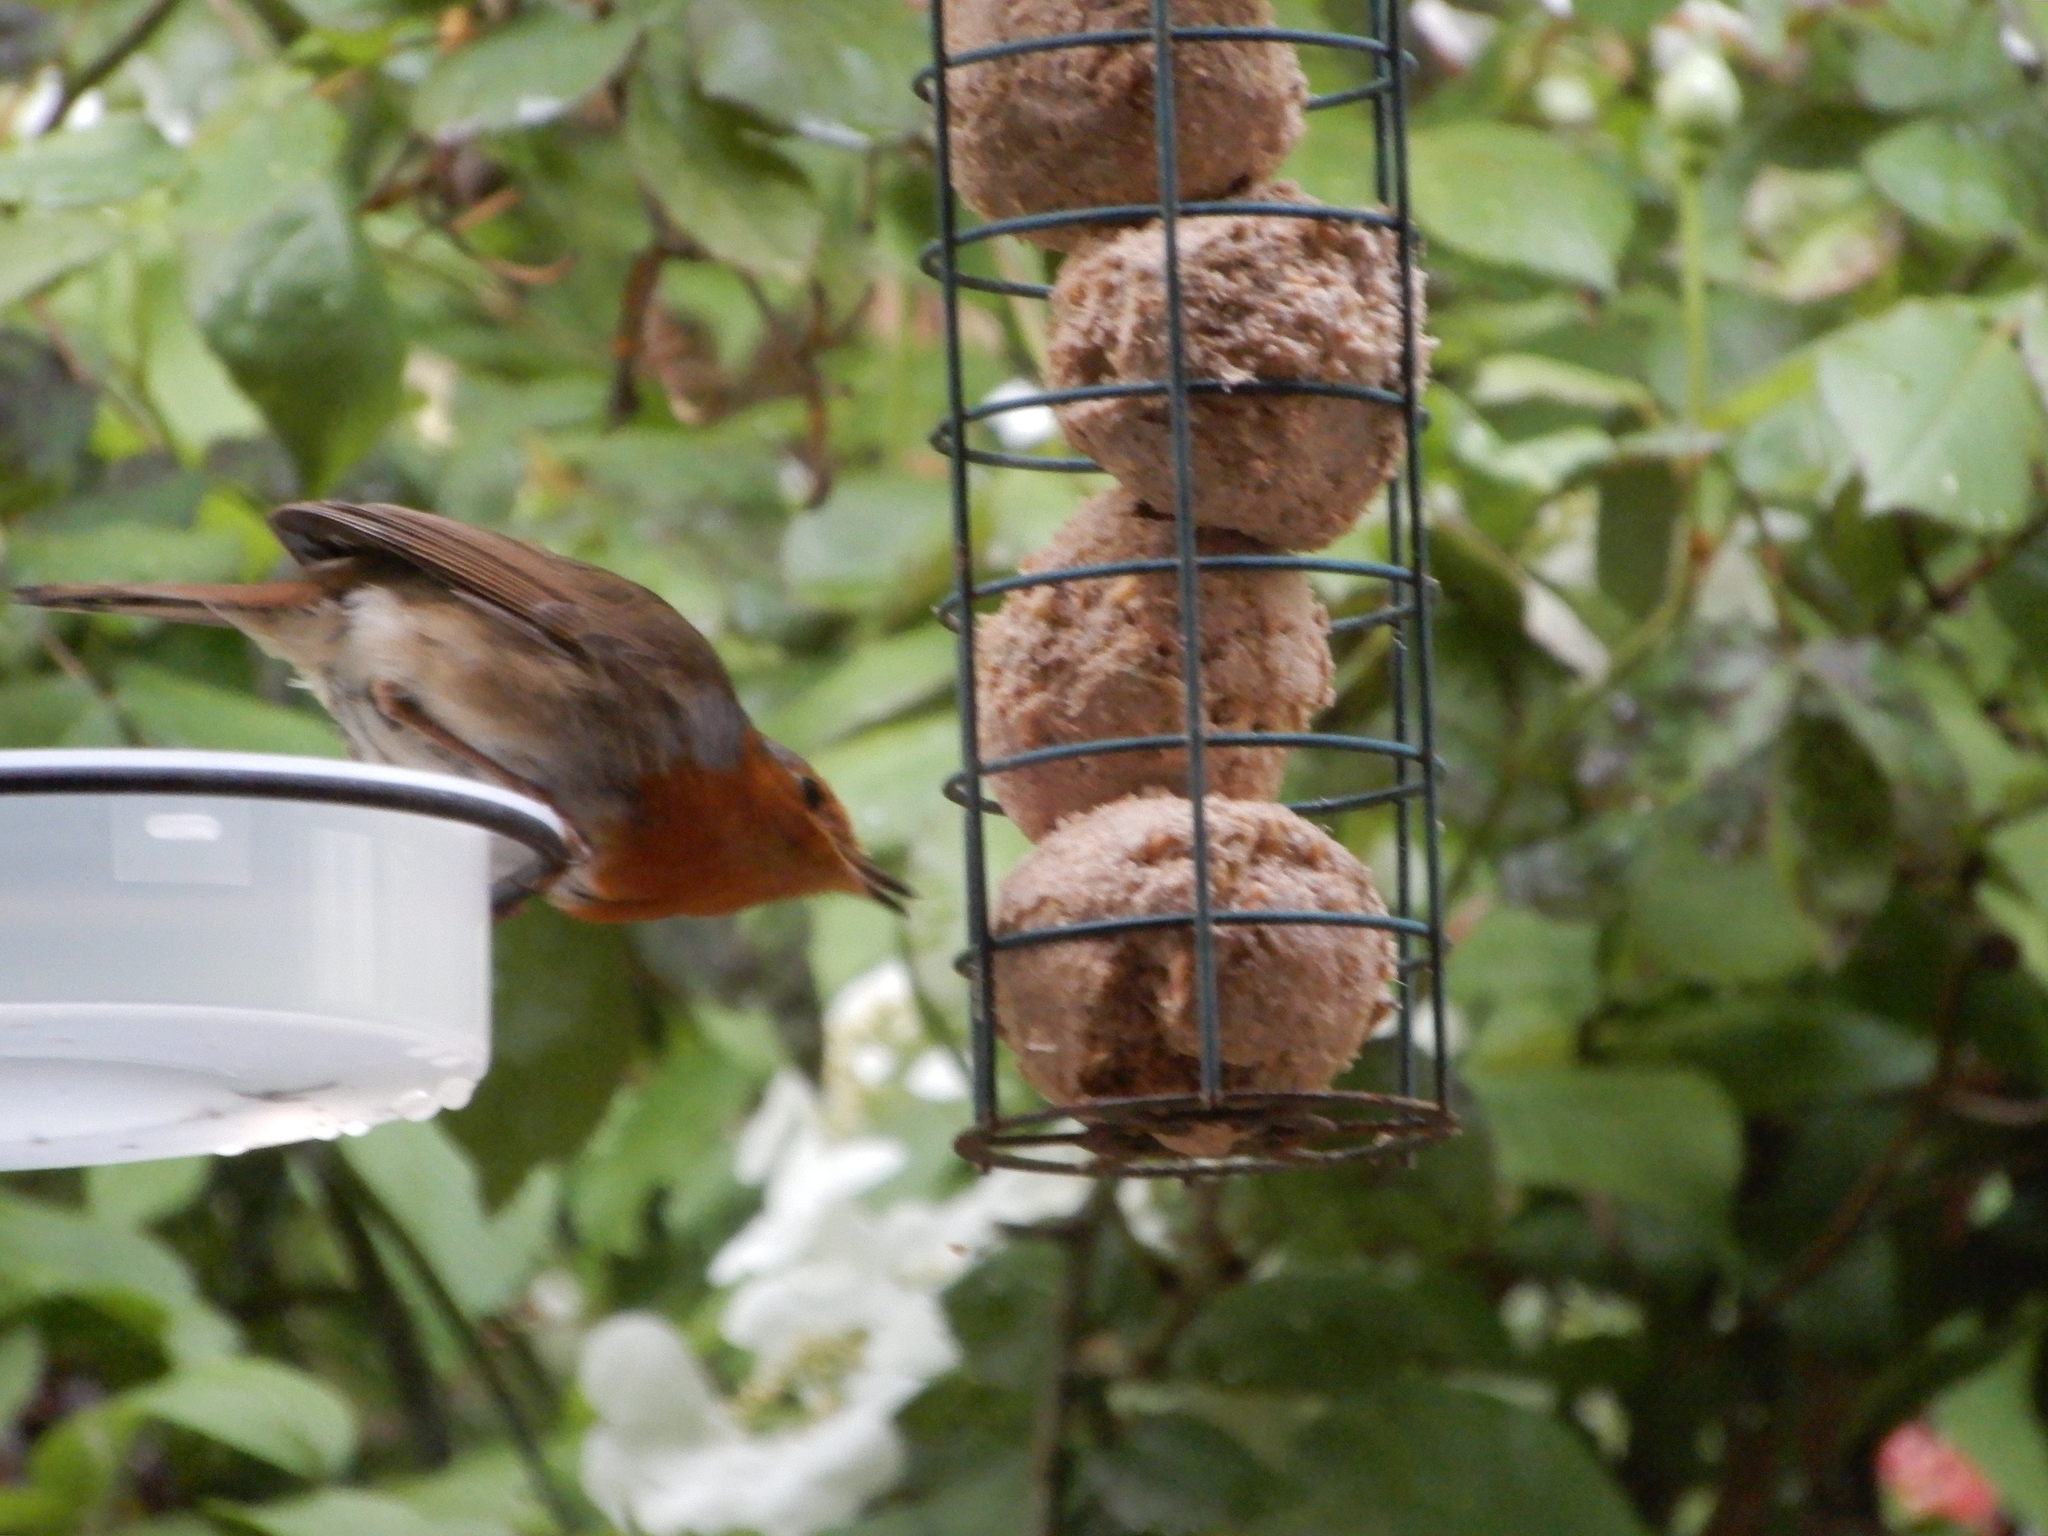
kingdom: Animalia
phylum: Chordata
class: Aves
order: Passeriformes
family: Muscicapidae
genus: Erithacus
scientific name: Erithacus rubecula
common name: European robin
